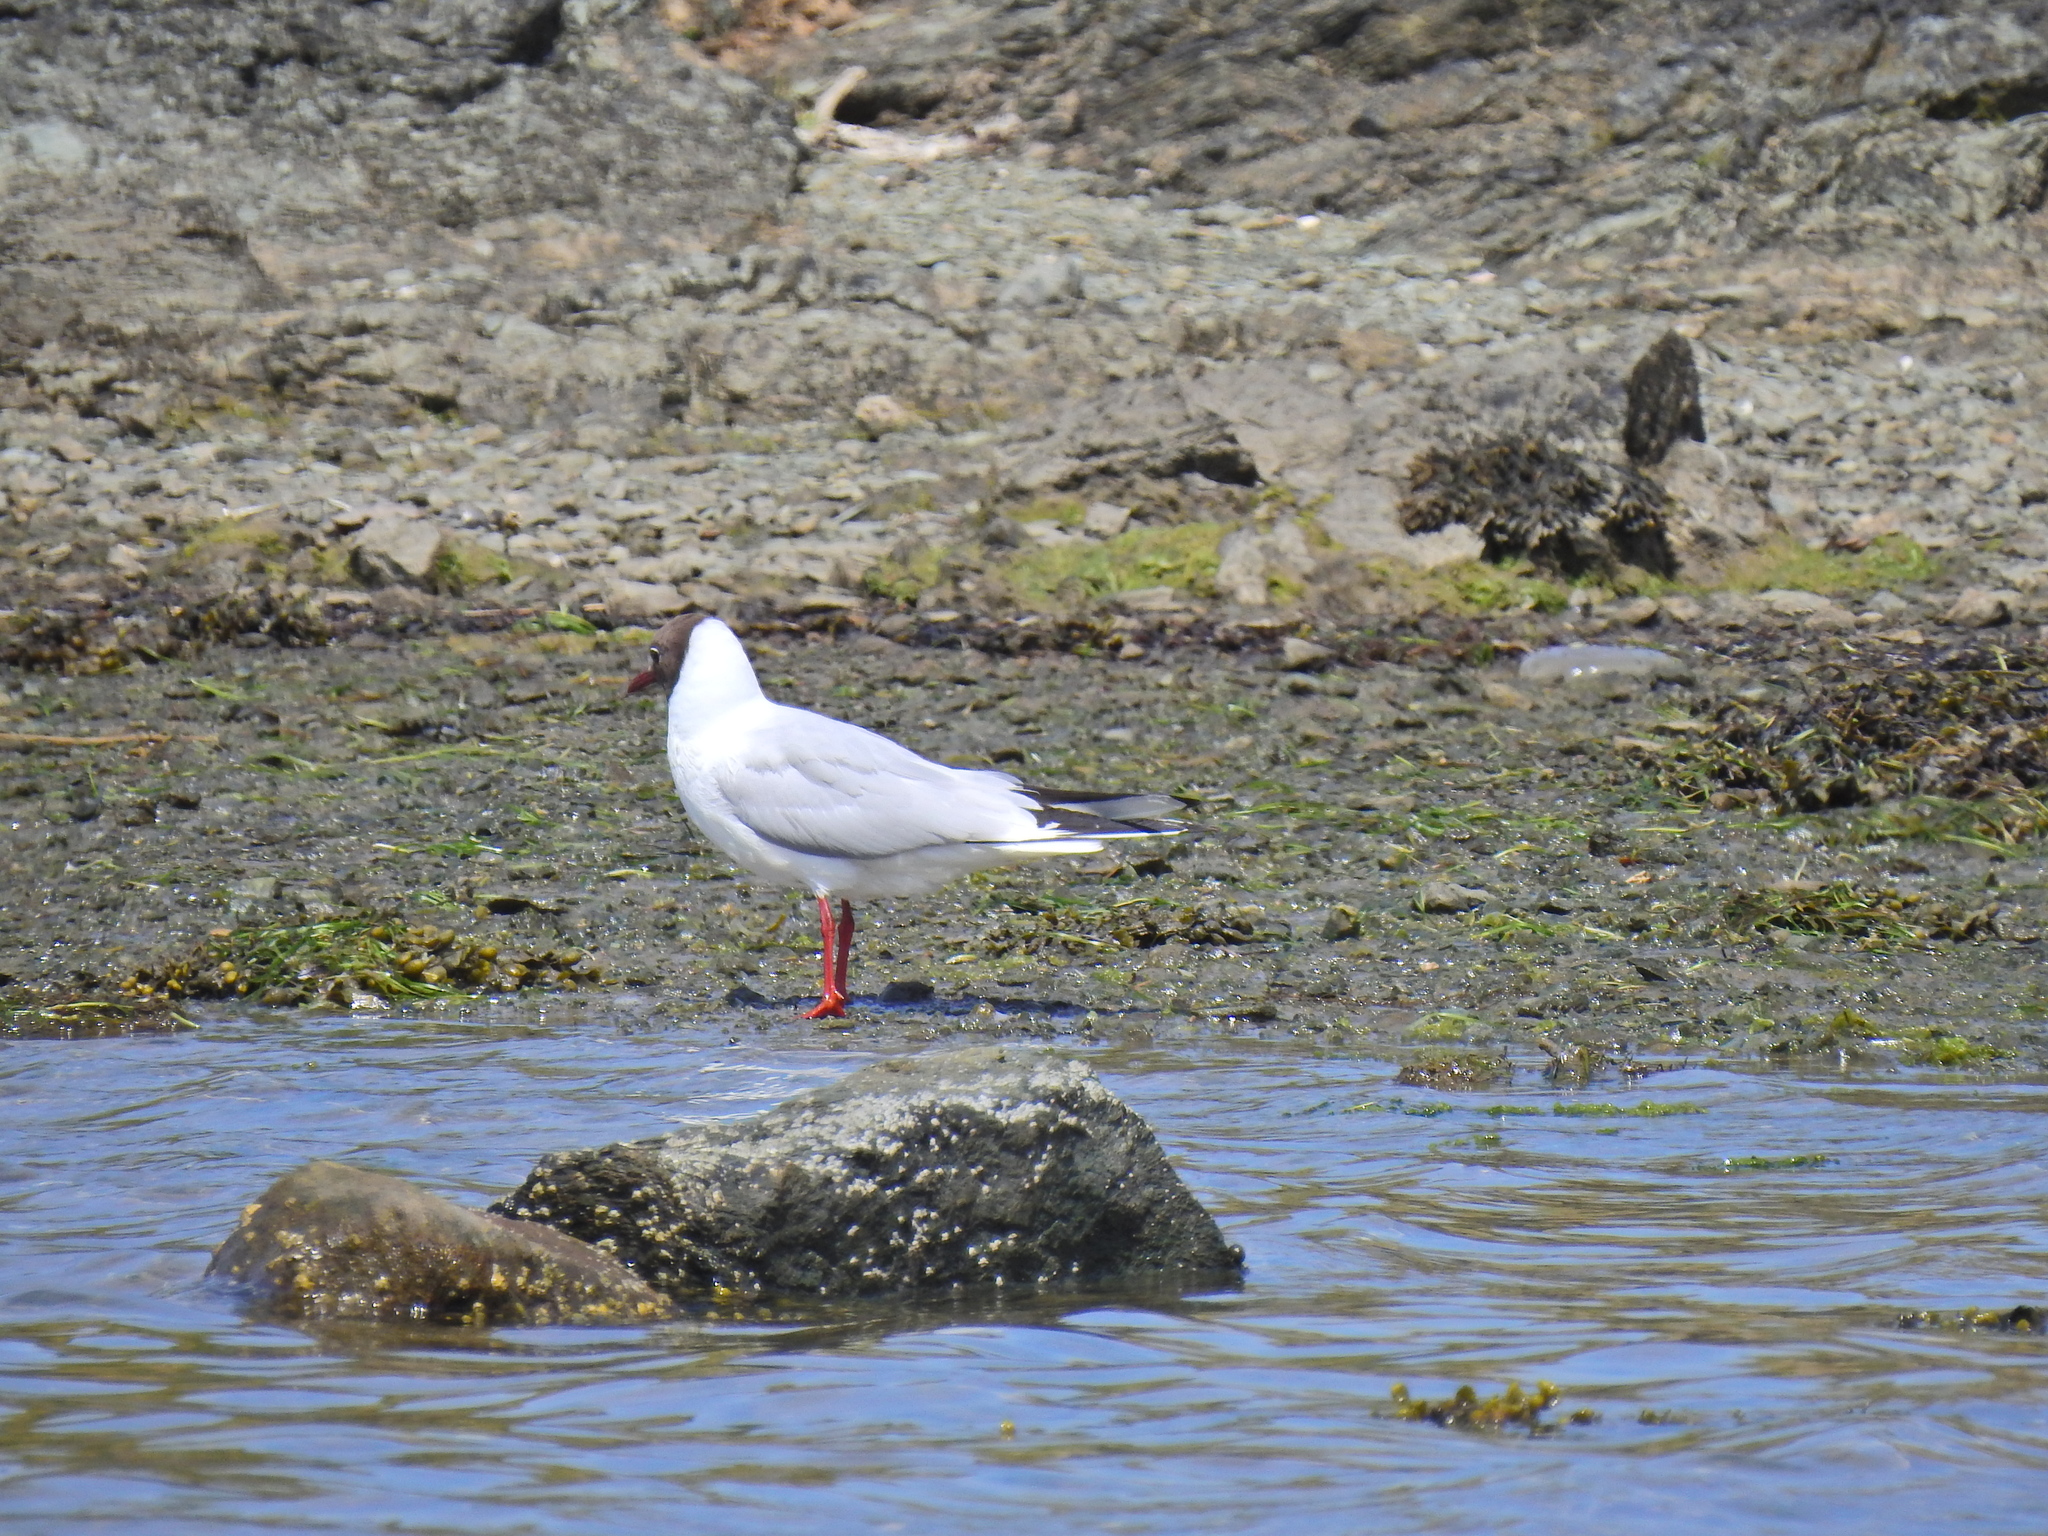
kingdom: Animalia
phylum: Chordata
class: Aves
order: Charadriiformes
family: Laridae
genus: Chroicocephalus
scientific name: Chroicocephalus ridibundus
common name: Black-headed gull
